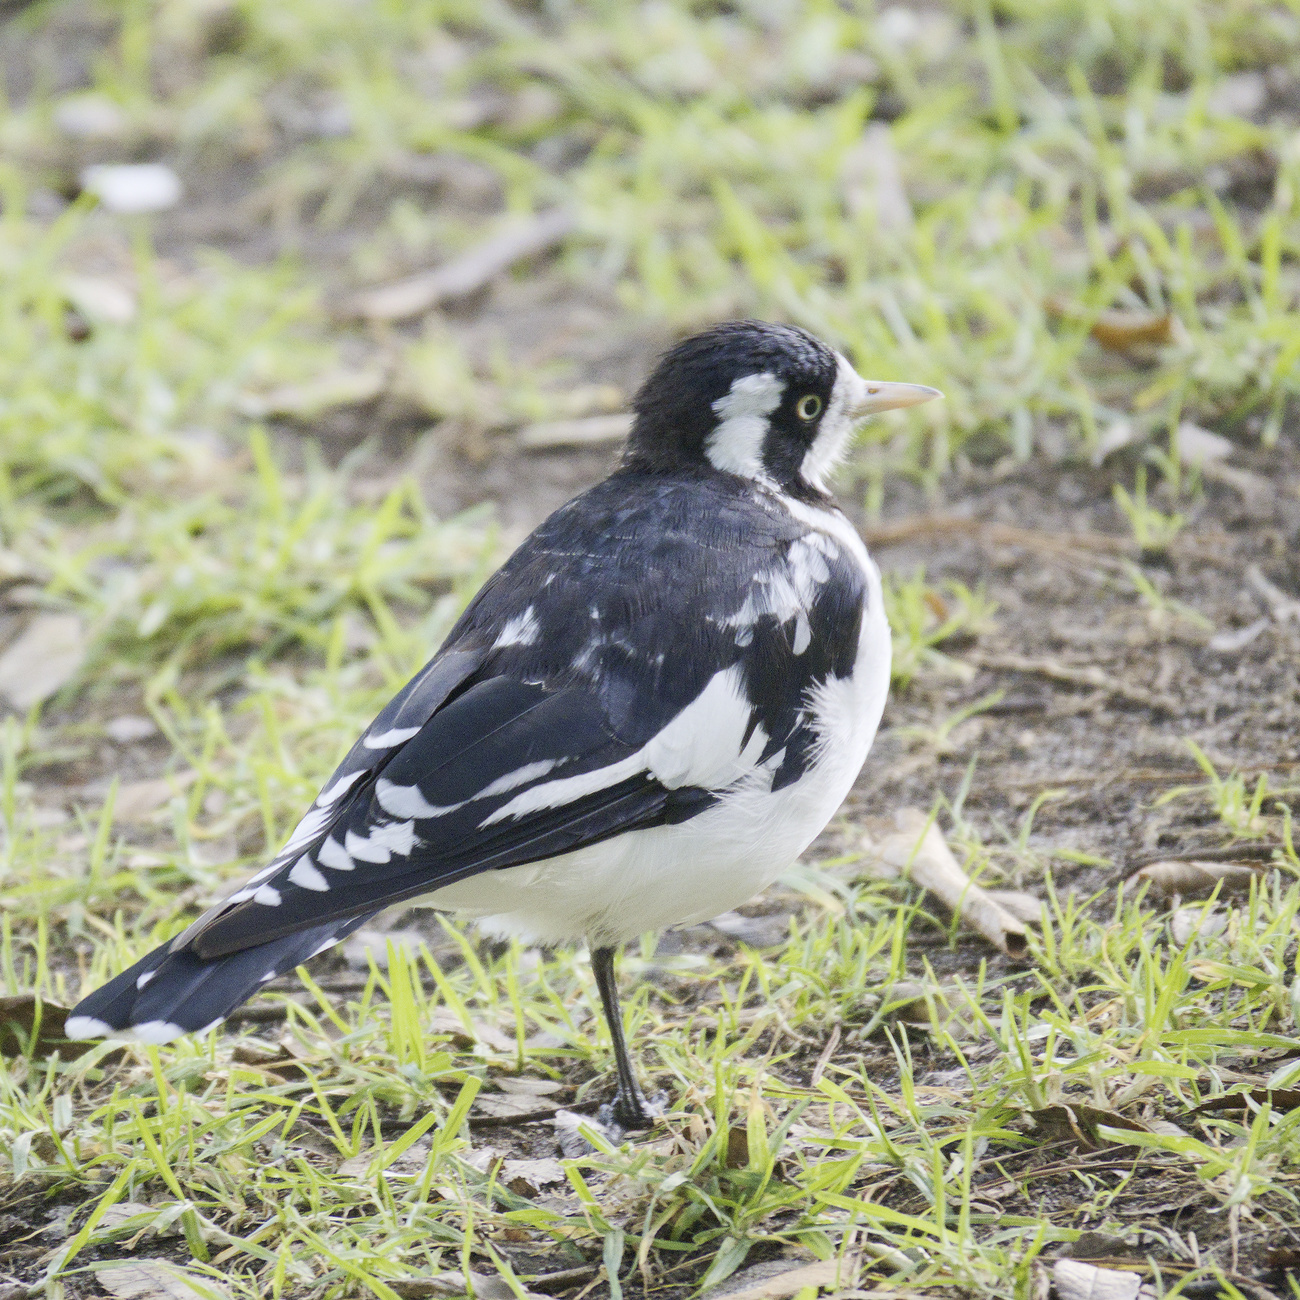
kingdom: Animalia
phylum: Chordata
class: Aves
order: Passeriformes
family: Monarchidae
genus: Grallina
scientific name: Grallina cyanoleuca
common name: Magpie-lark
